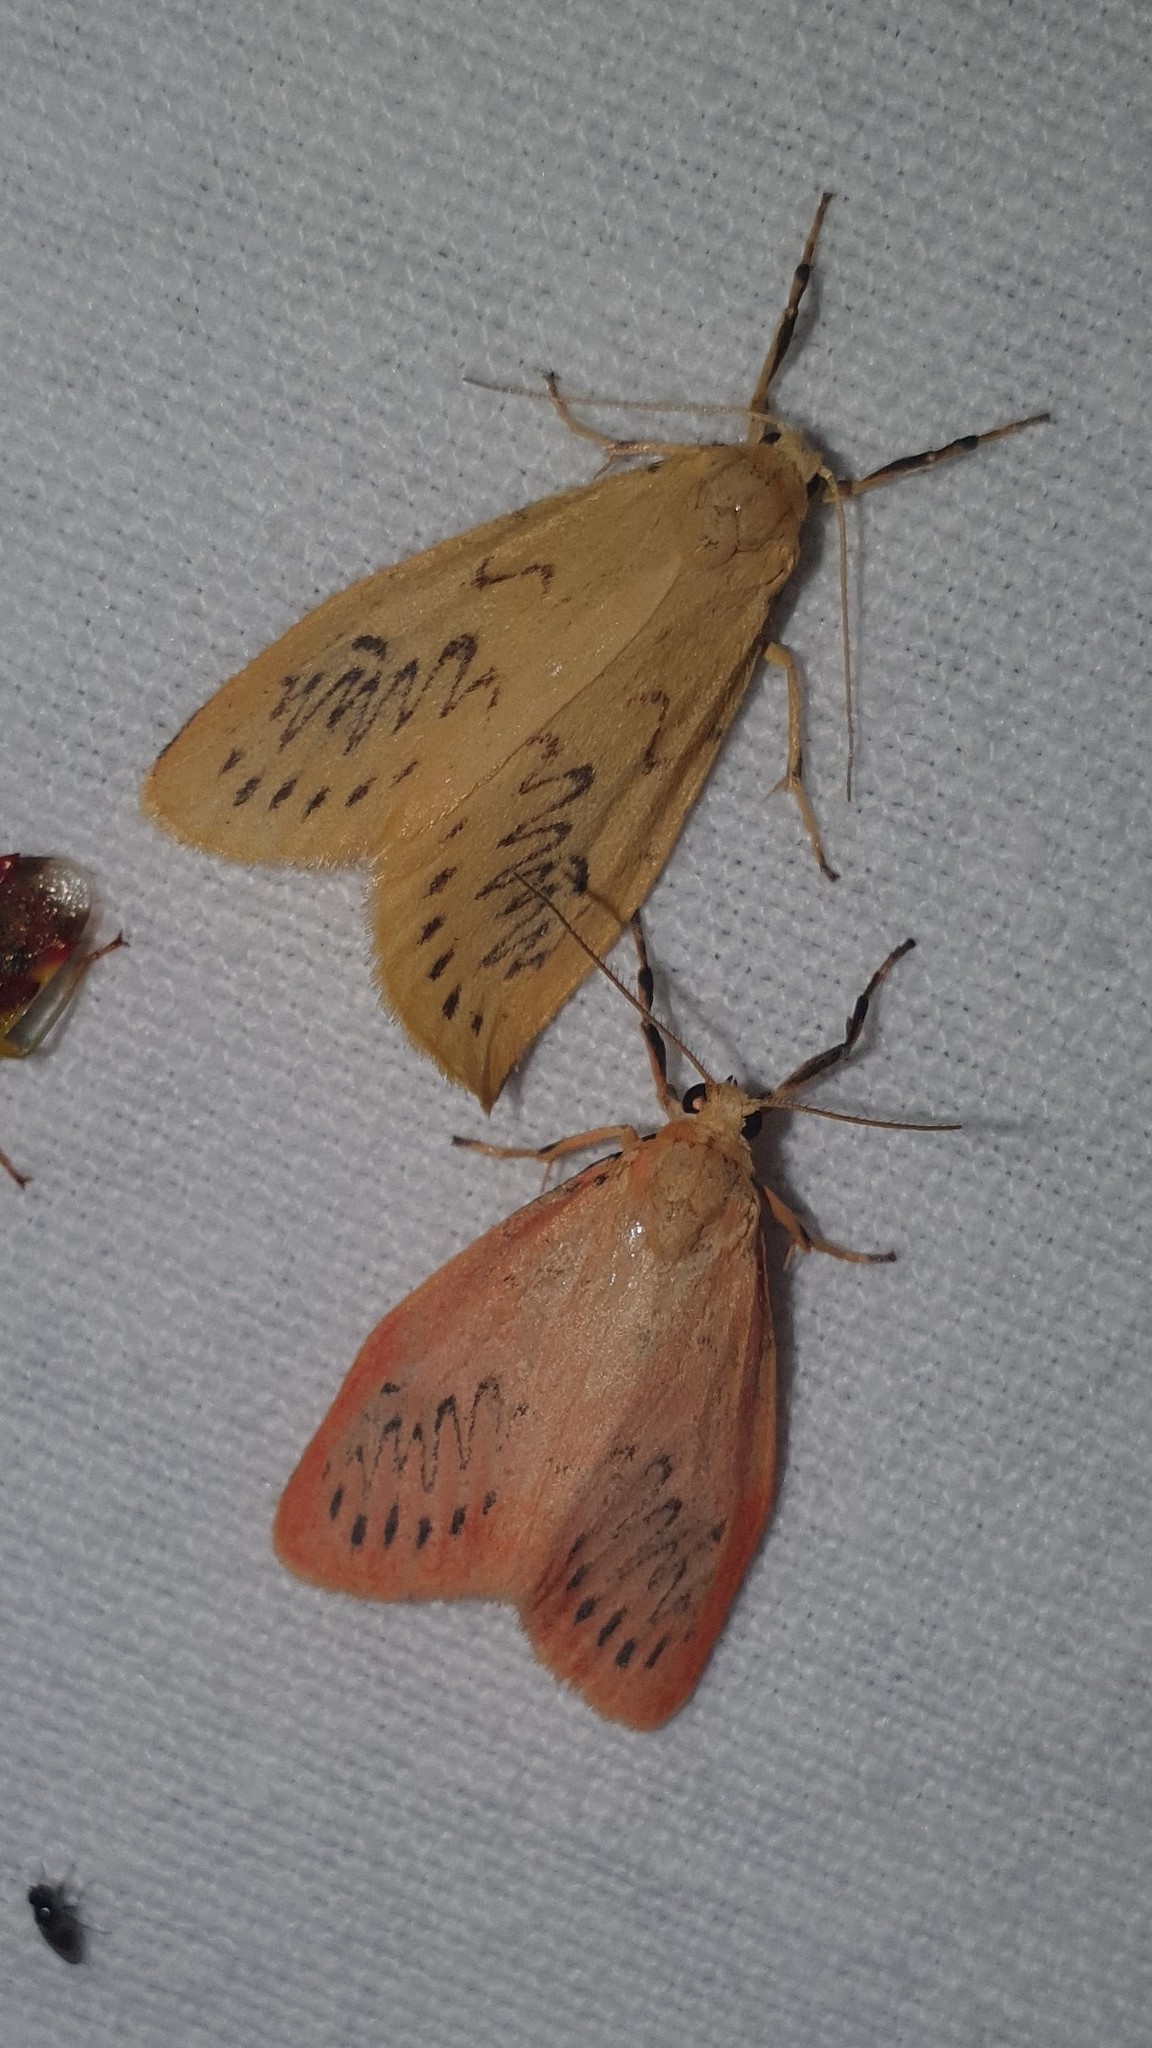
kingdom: Animalia
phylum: Arthropoda
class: Insecta
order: Lepidoptera
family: Erebidae
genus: Miltochrista
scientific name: Miltochrista miniata
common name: Rosy footman
